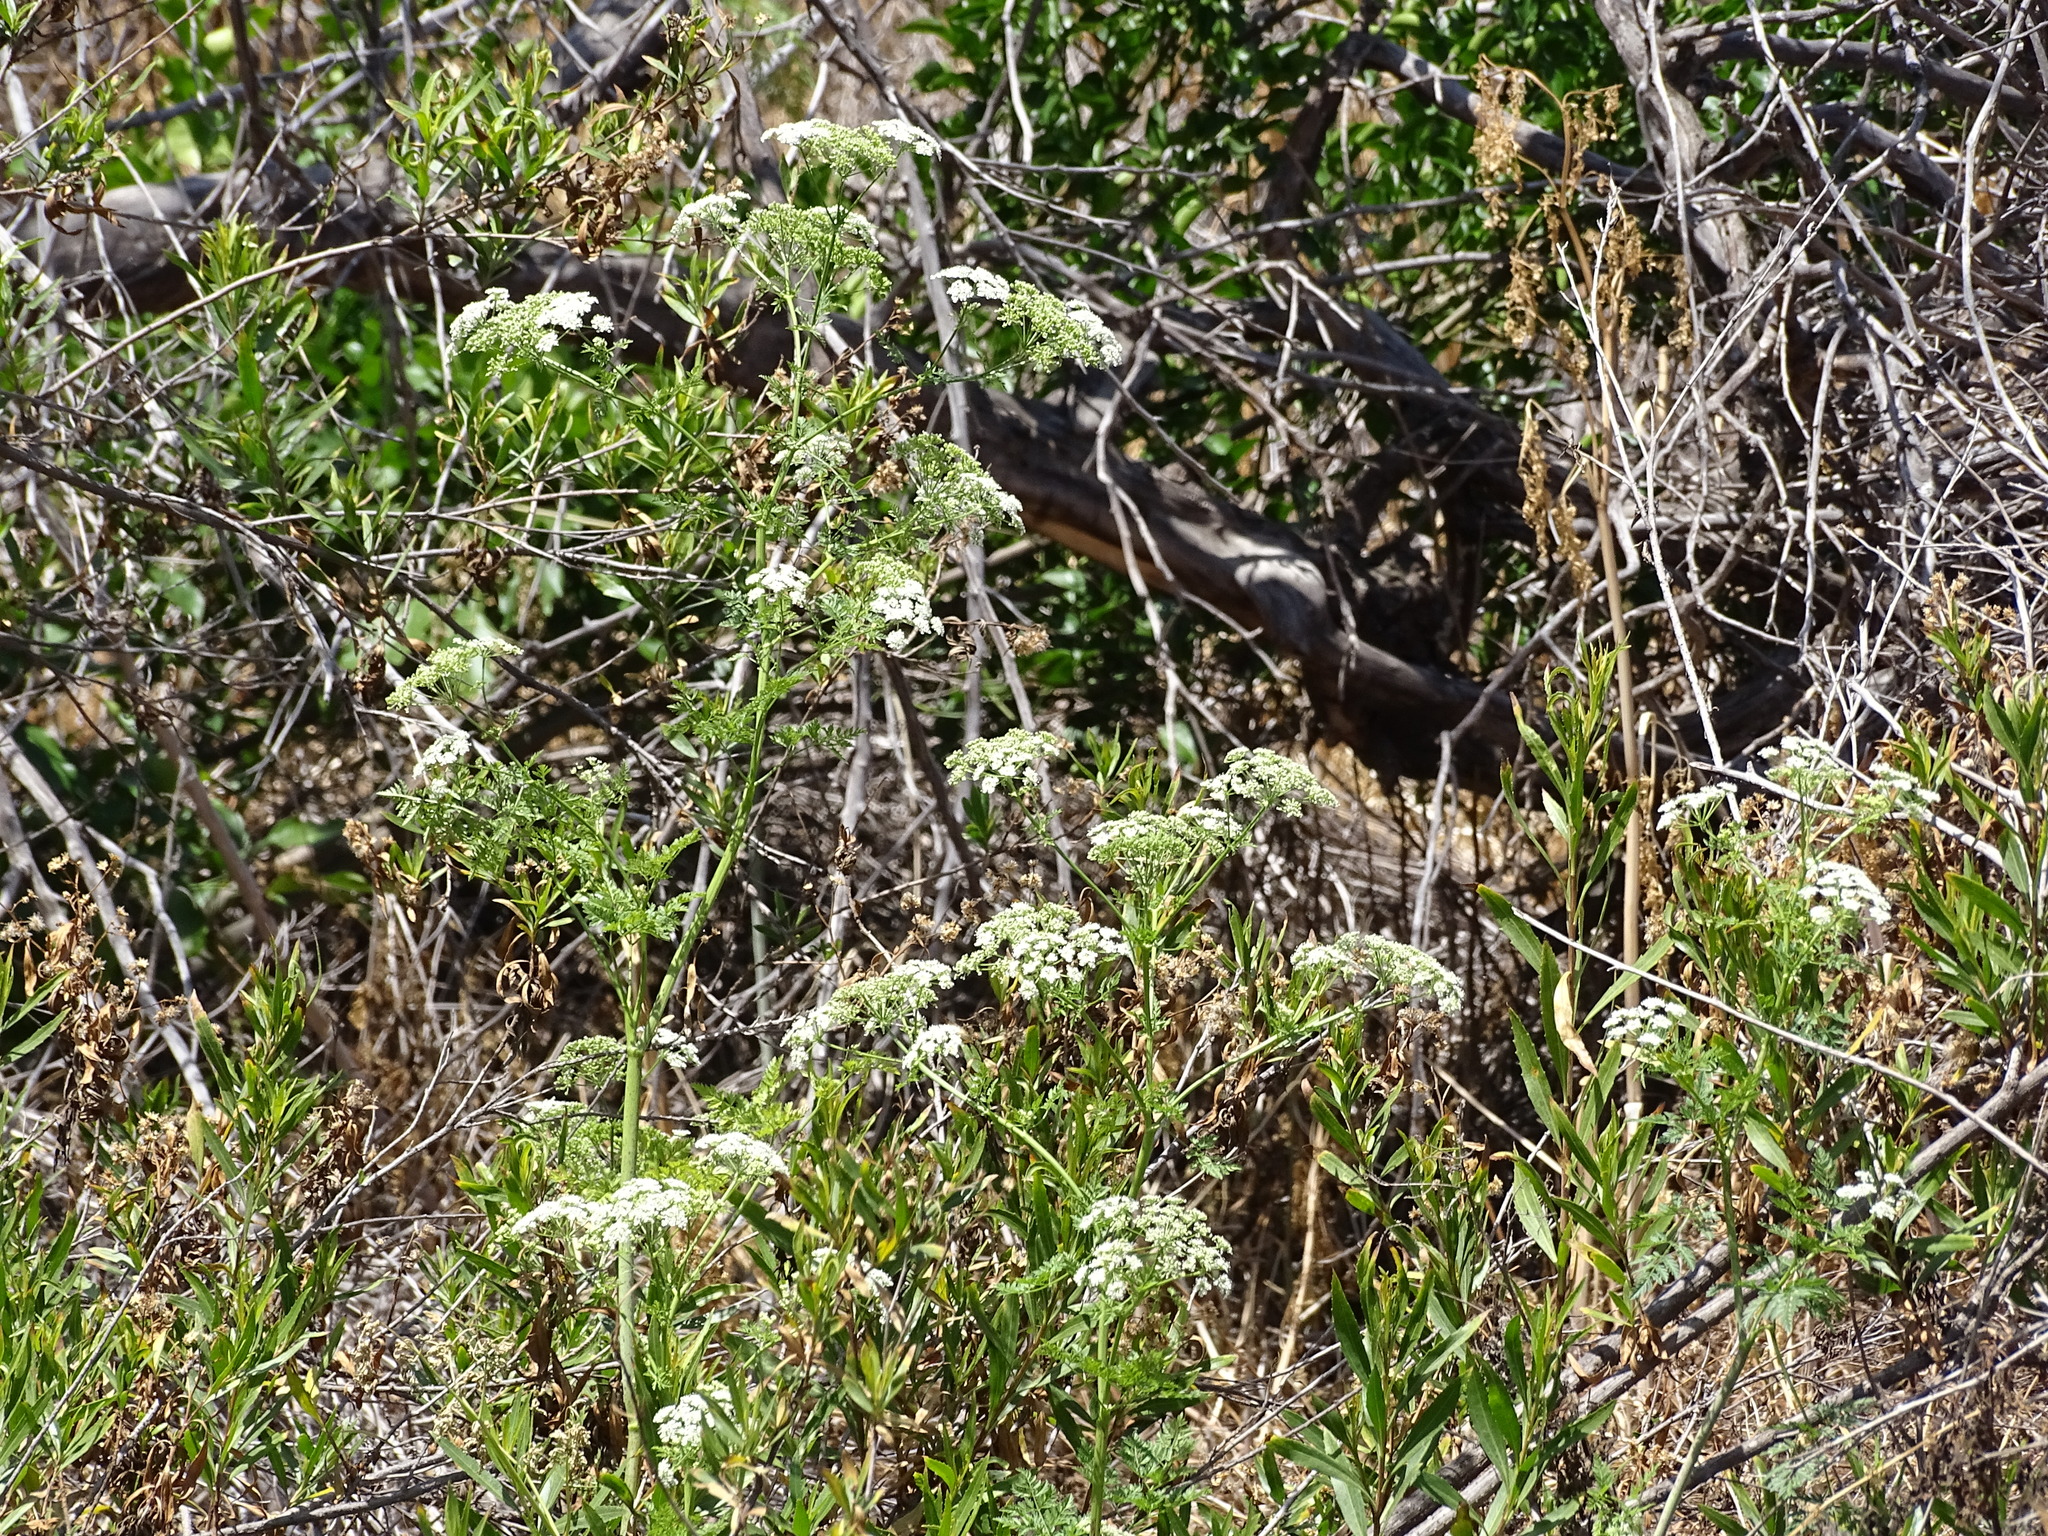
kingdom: Plantae
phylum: Tracheophyta
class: Magnoliopsida
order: Apiales
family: Apiaceae
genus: Conium
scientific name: Conium maculatum
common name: Hemlock
